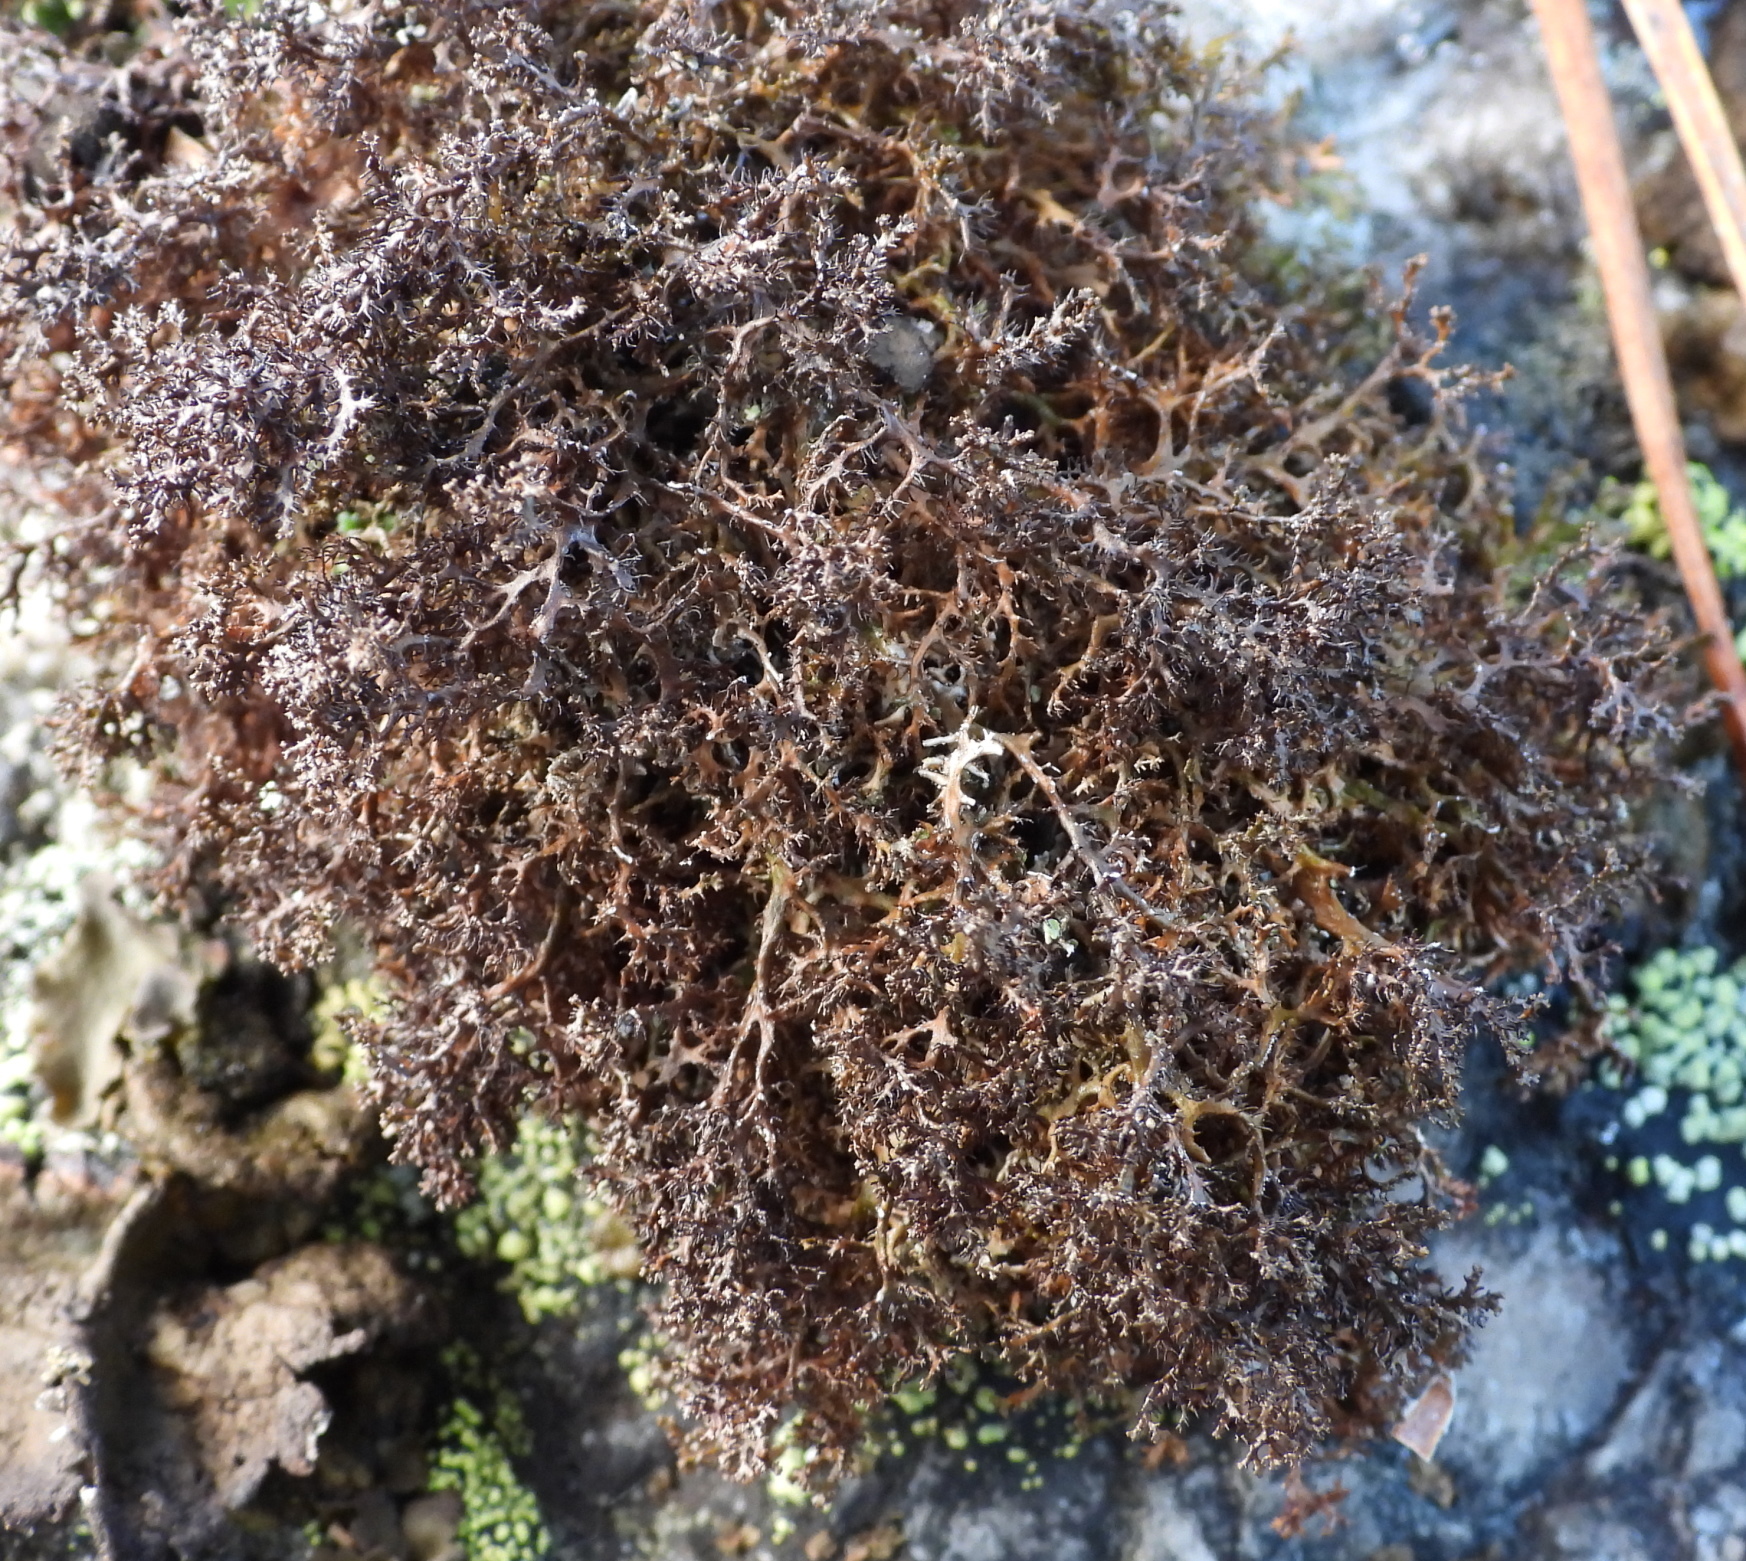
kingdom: Fungi
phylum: Ascomycota
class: Lecanoromycetes
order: Lecanorales
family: Parmeliaceae
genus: Cetraria
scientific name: Cetraria odontella
